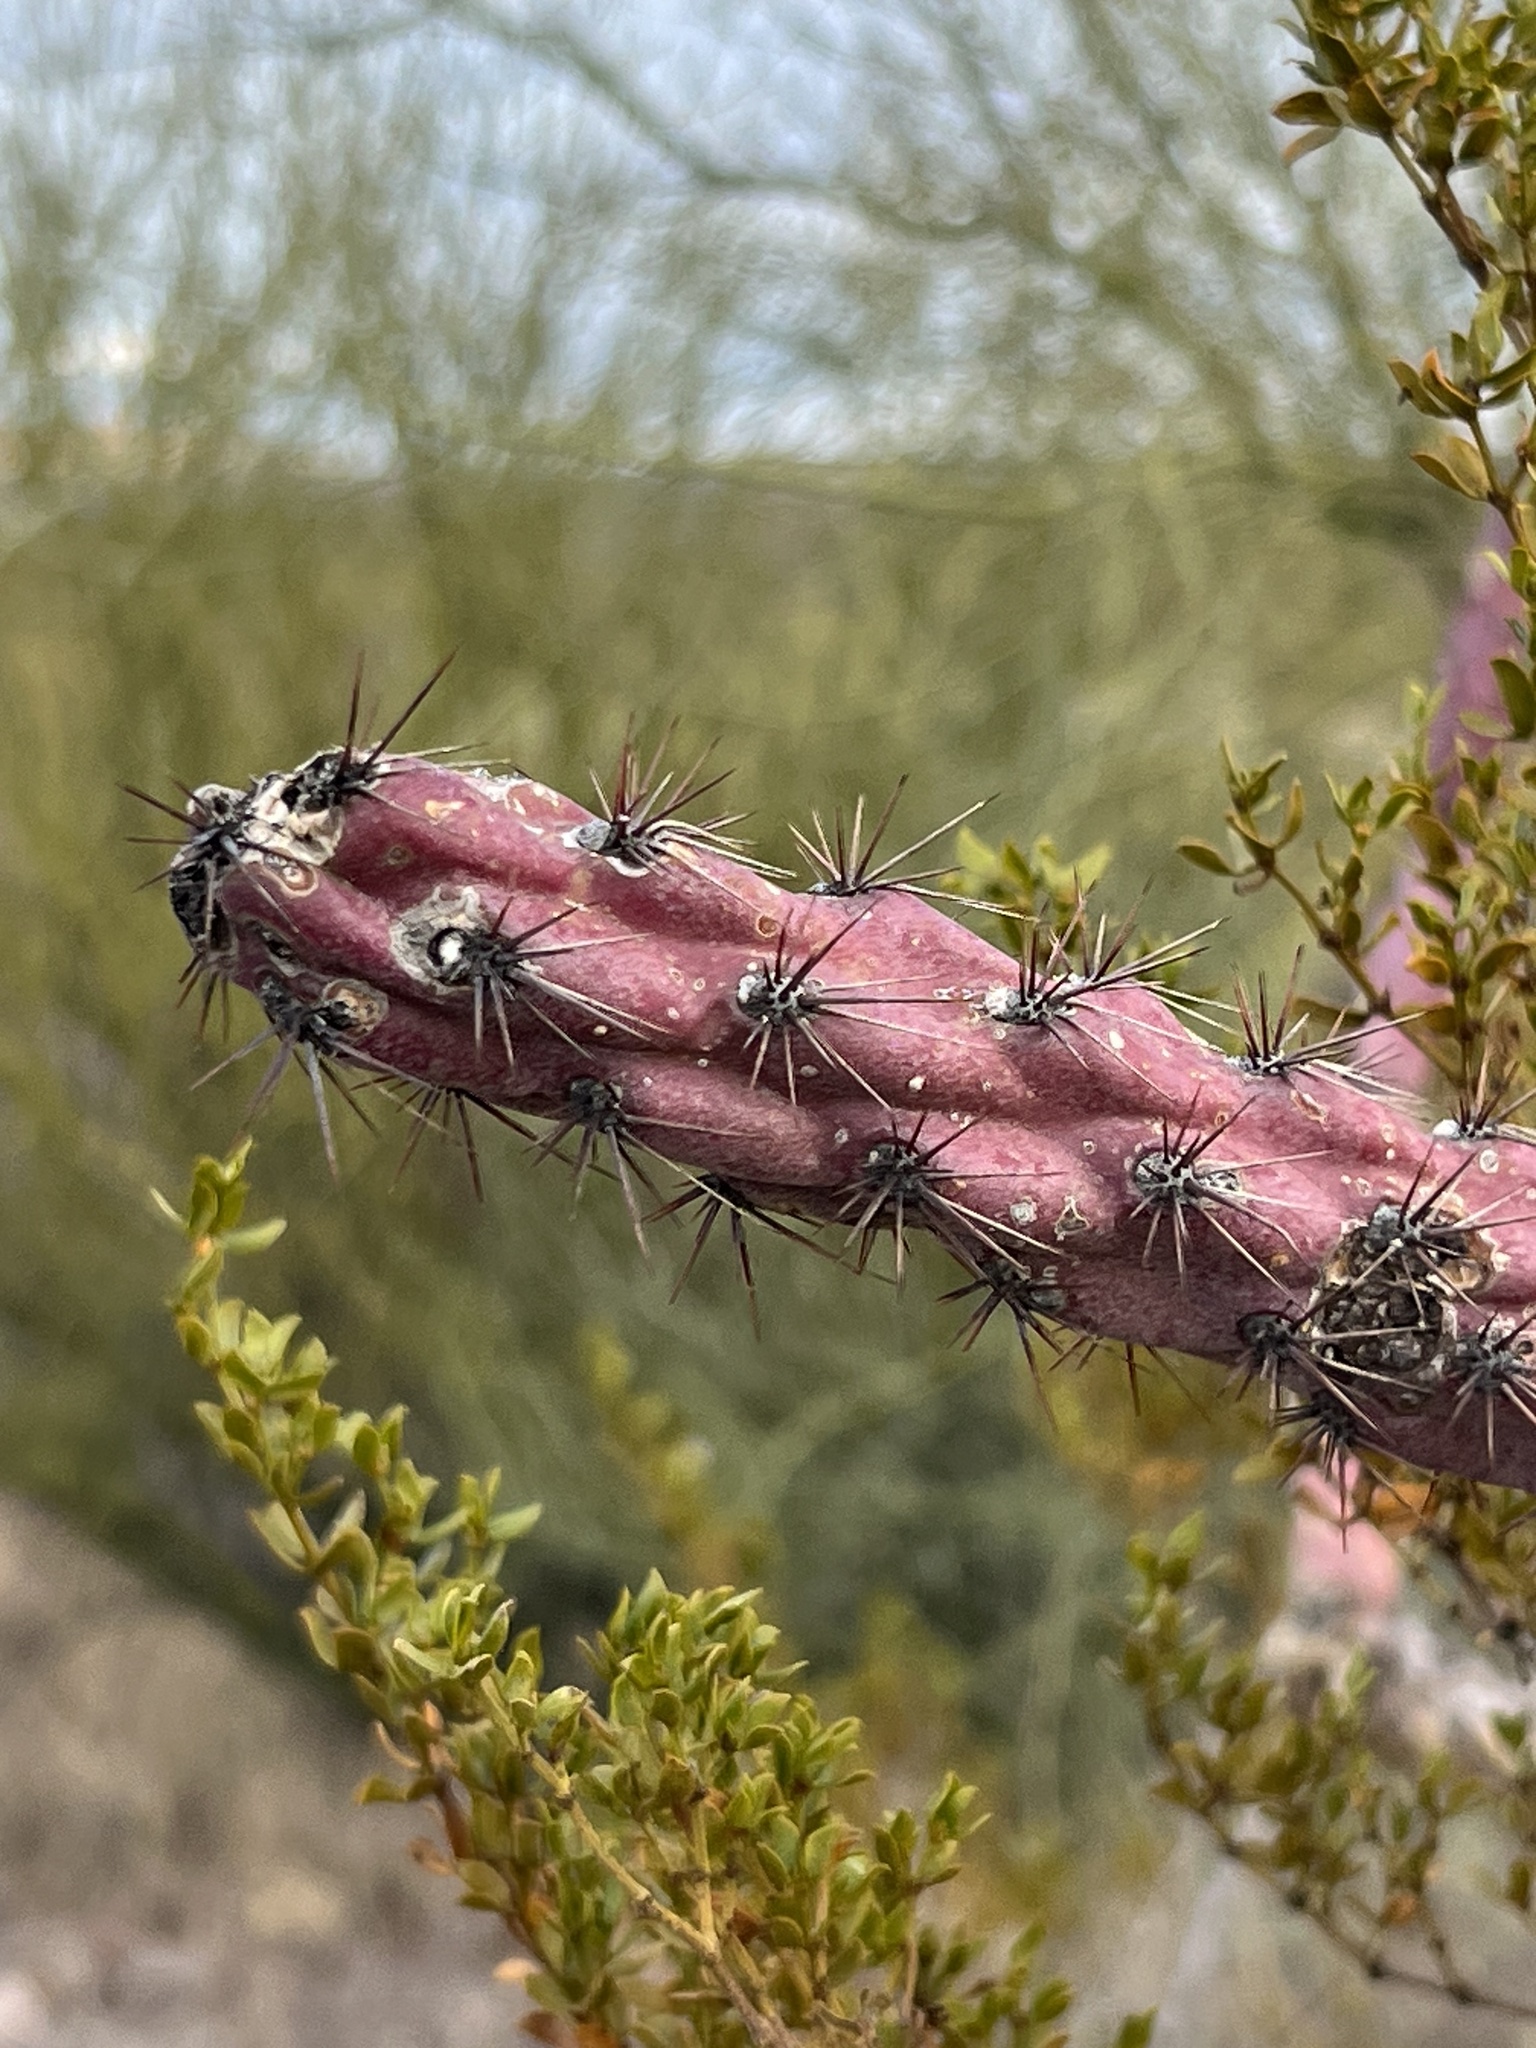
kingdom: Plantae
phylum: Tracheophyta
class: Magnoliopsida
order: Caryophyllales
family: Cactaceae
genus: Cylindropuntia
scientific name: Cylindropuntia thurberi
